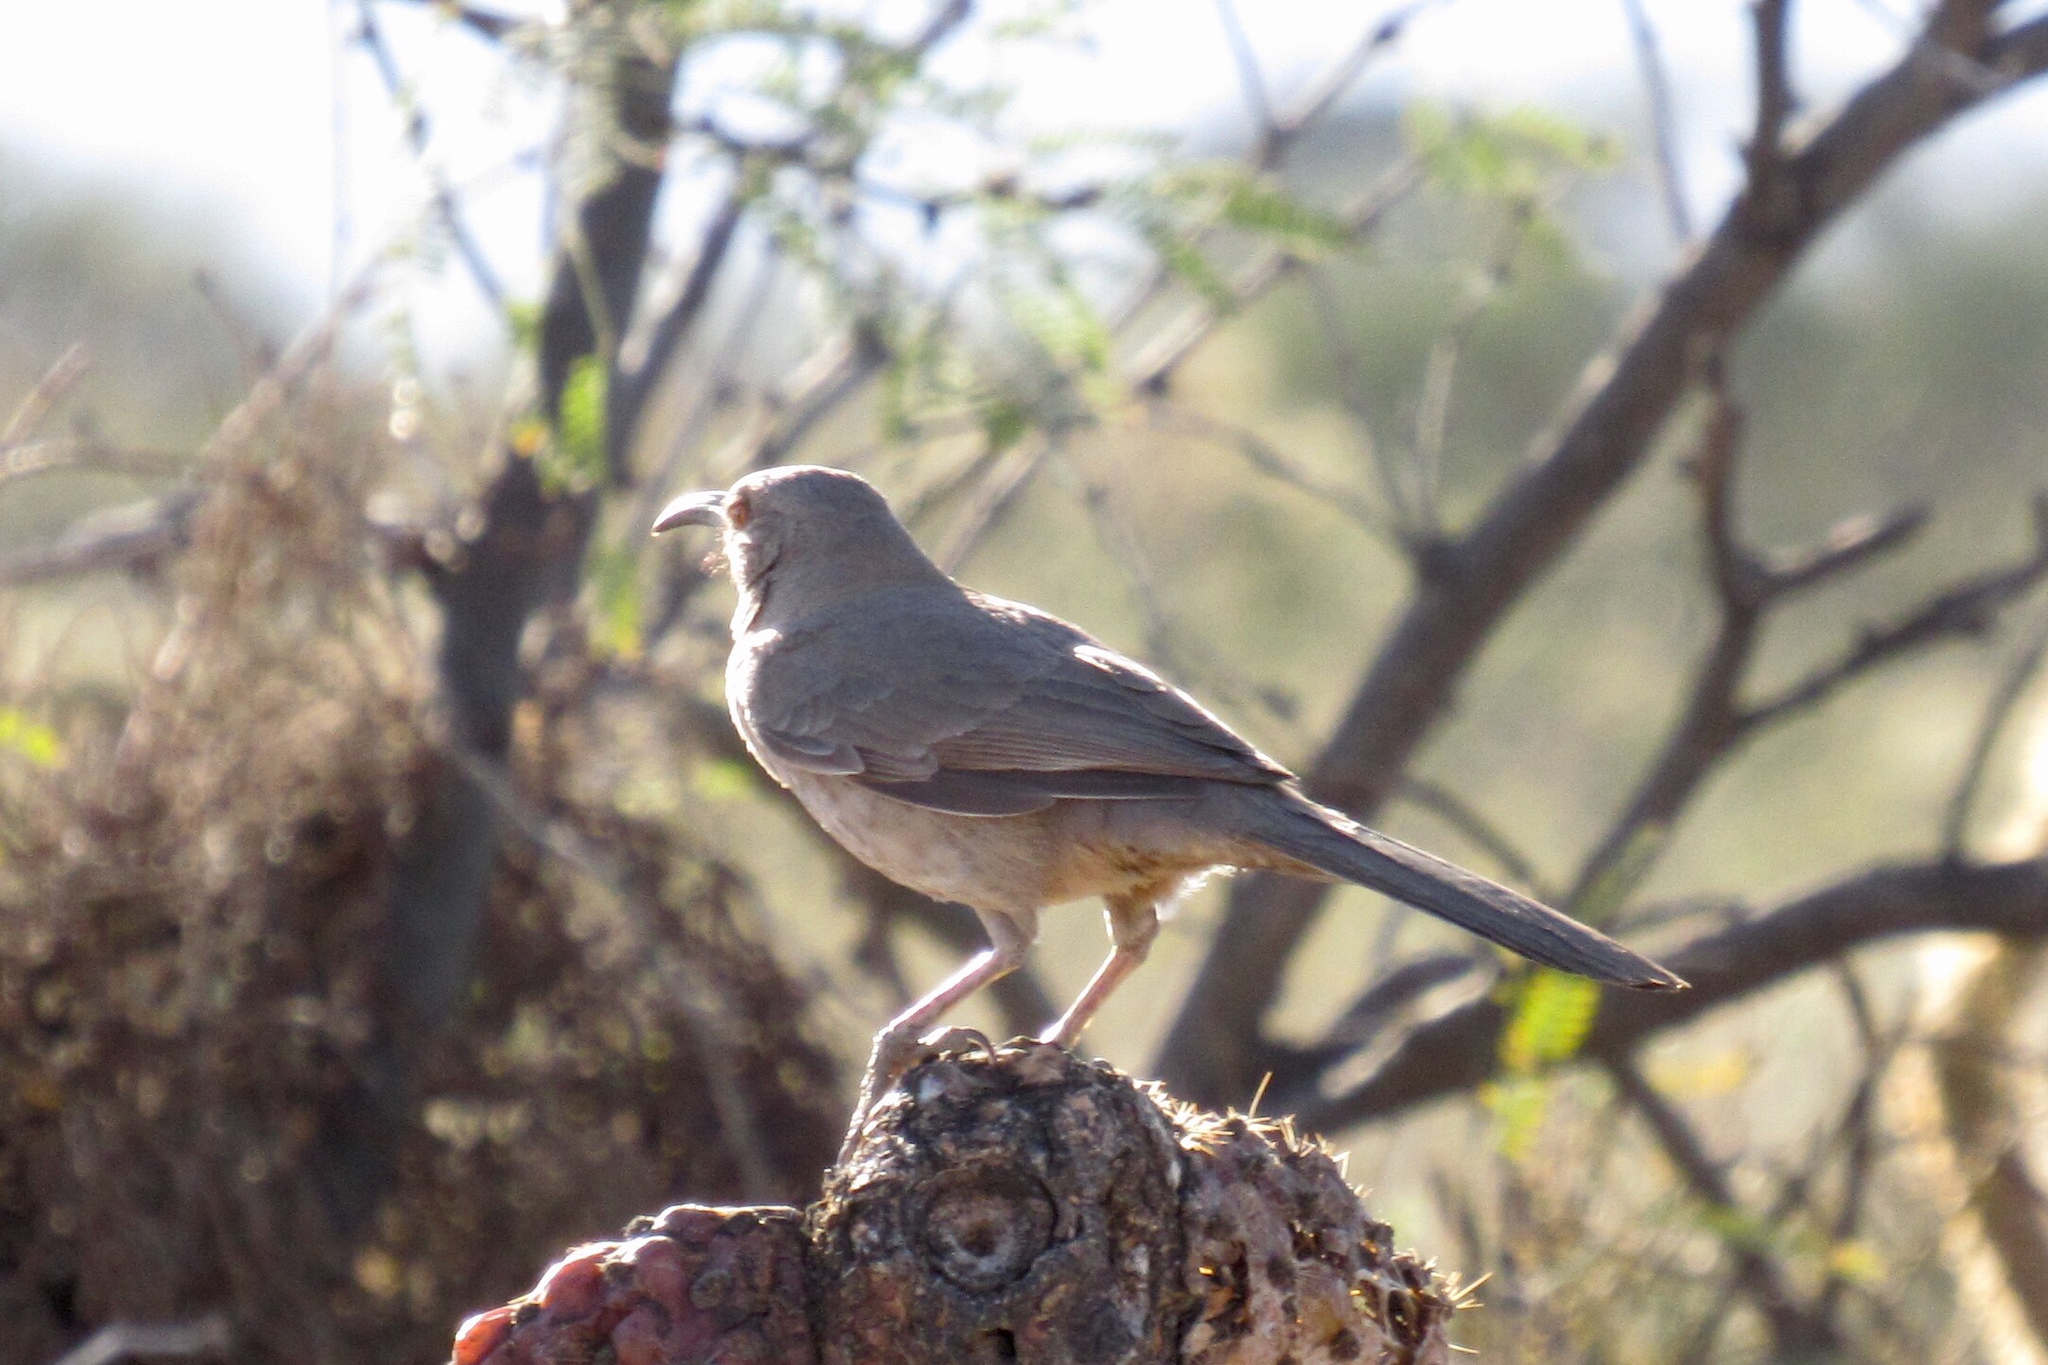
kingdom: Animalia
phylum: Chordata
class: Aves
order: Passeriformes
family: Mimidae
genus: Toxostoma
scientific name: Toxostoma curvirostre
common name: Curve-billed thrasher
